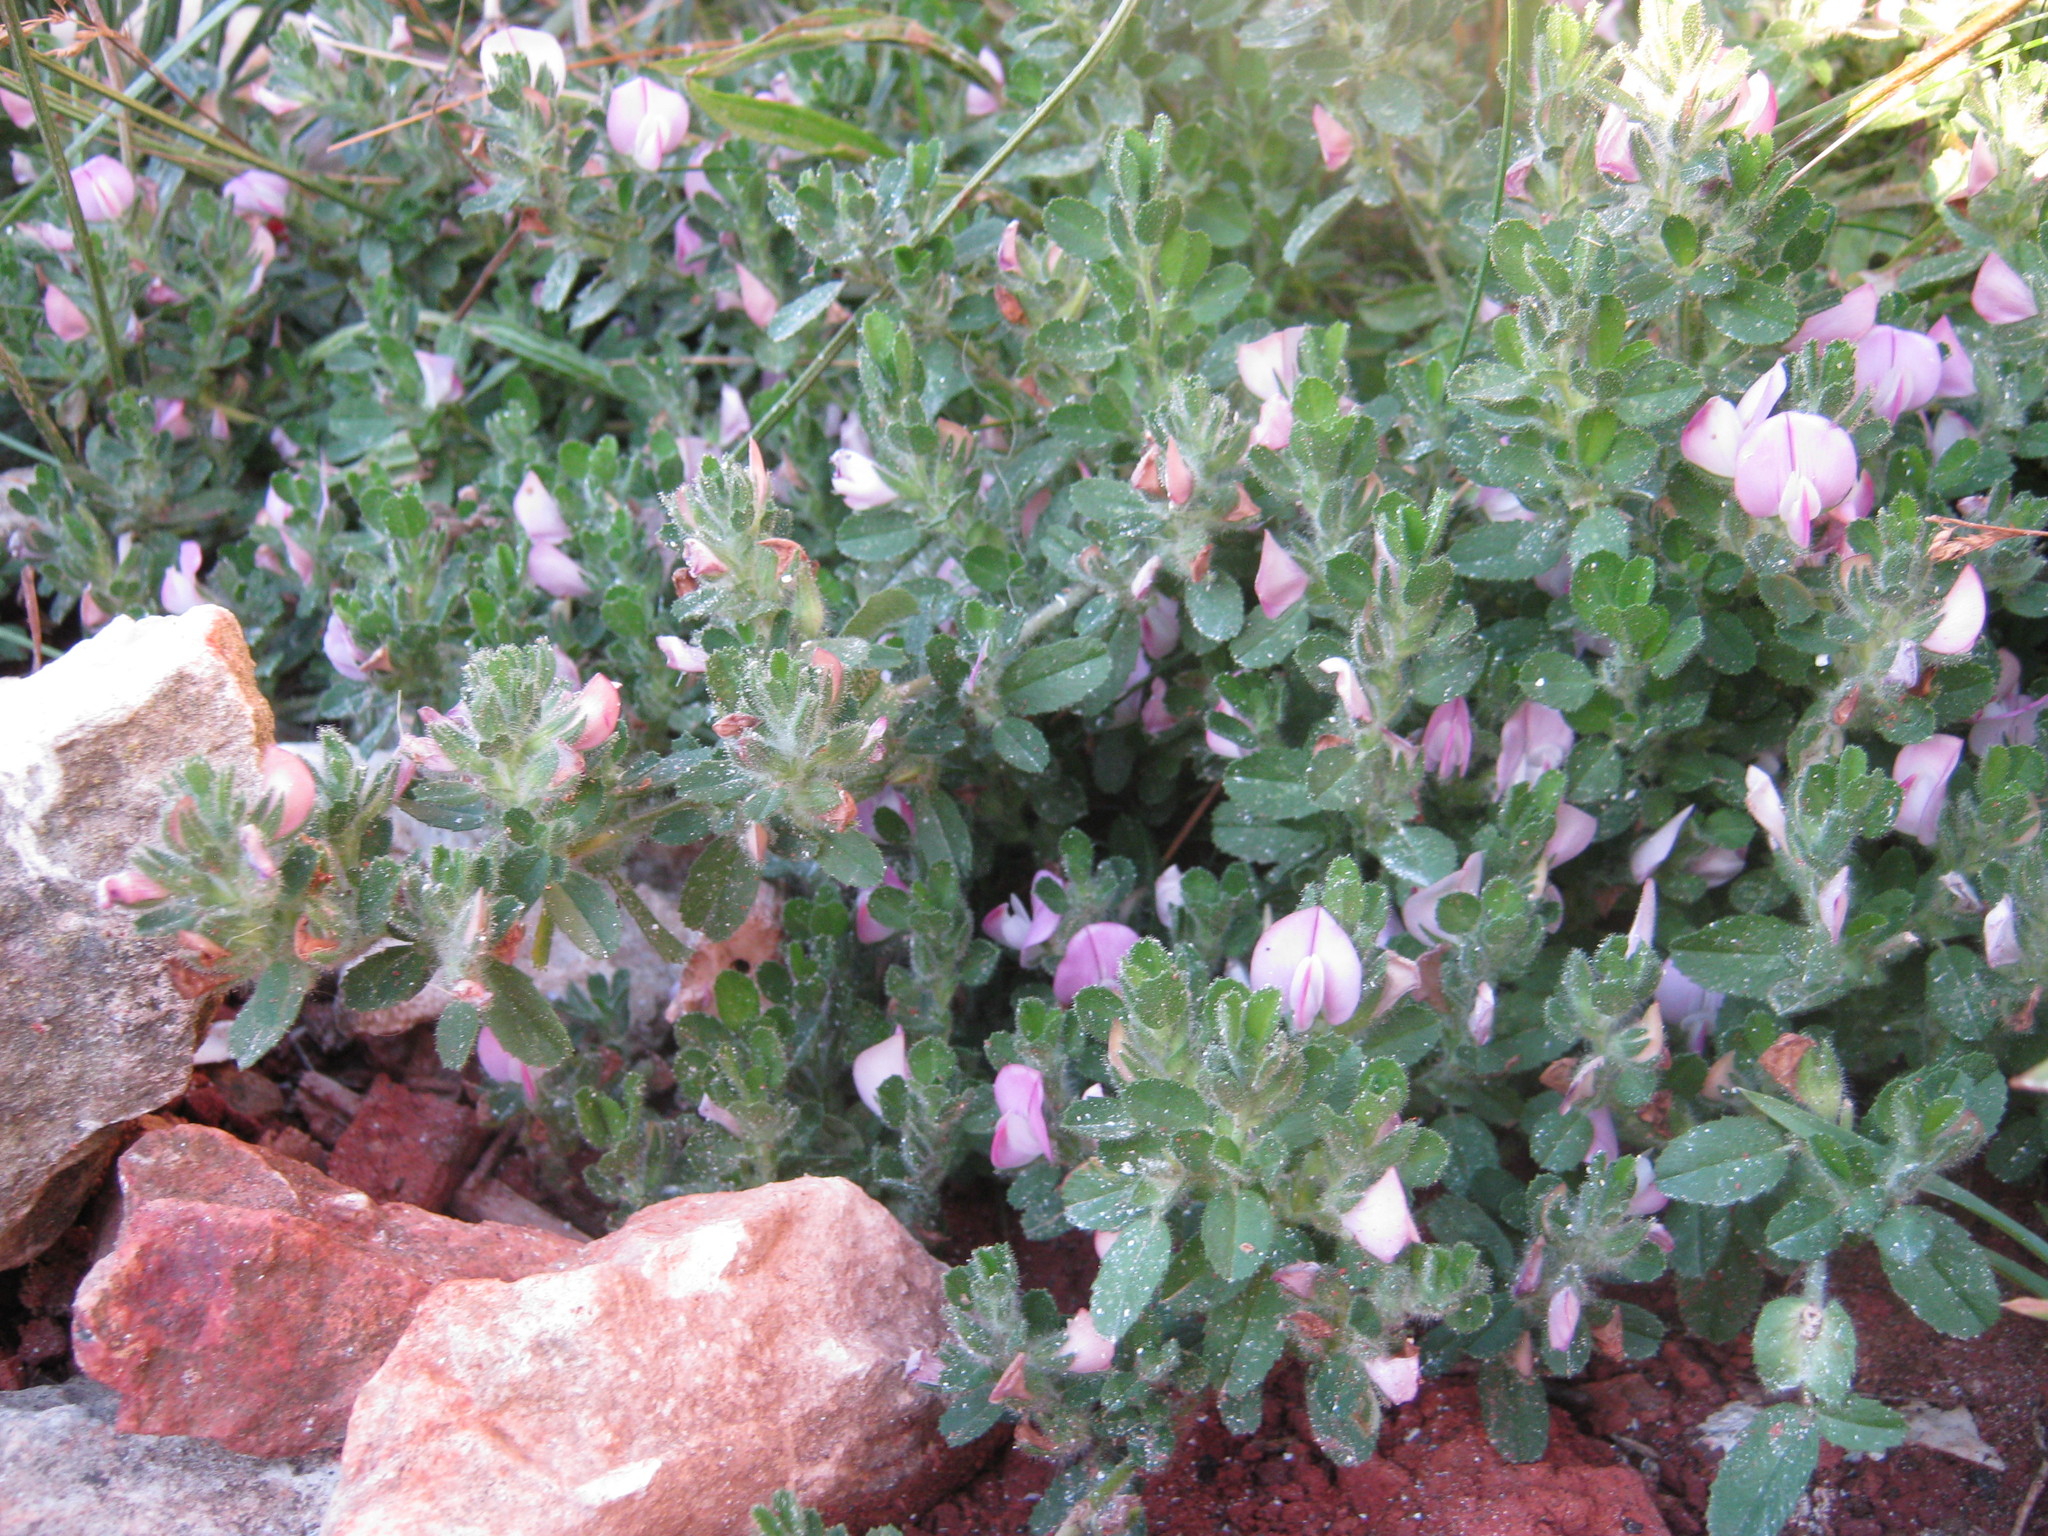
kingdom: Plantae
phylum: Tracheophyta
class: Magnoliopsida
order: Fabales
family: Fabaceae
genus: Ononis
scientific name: Ononis spinosa
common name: Spiny restharrow
